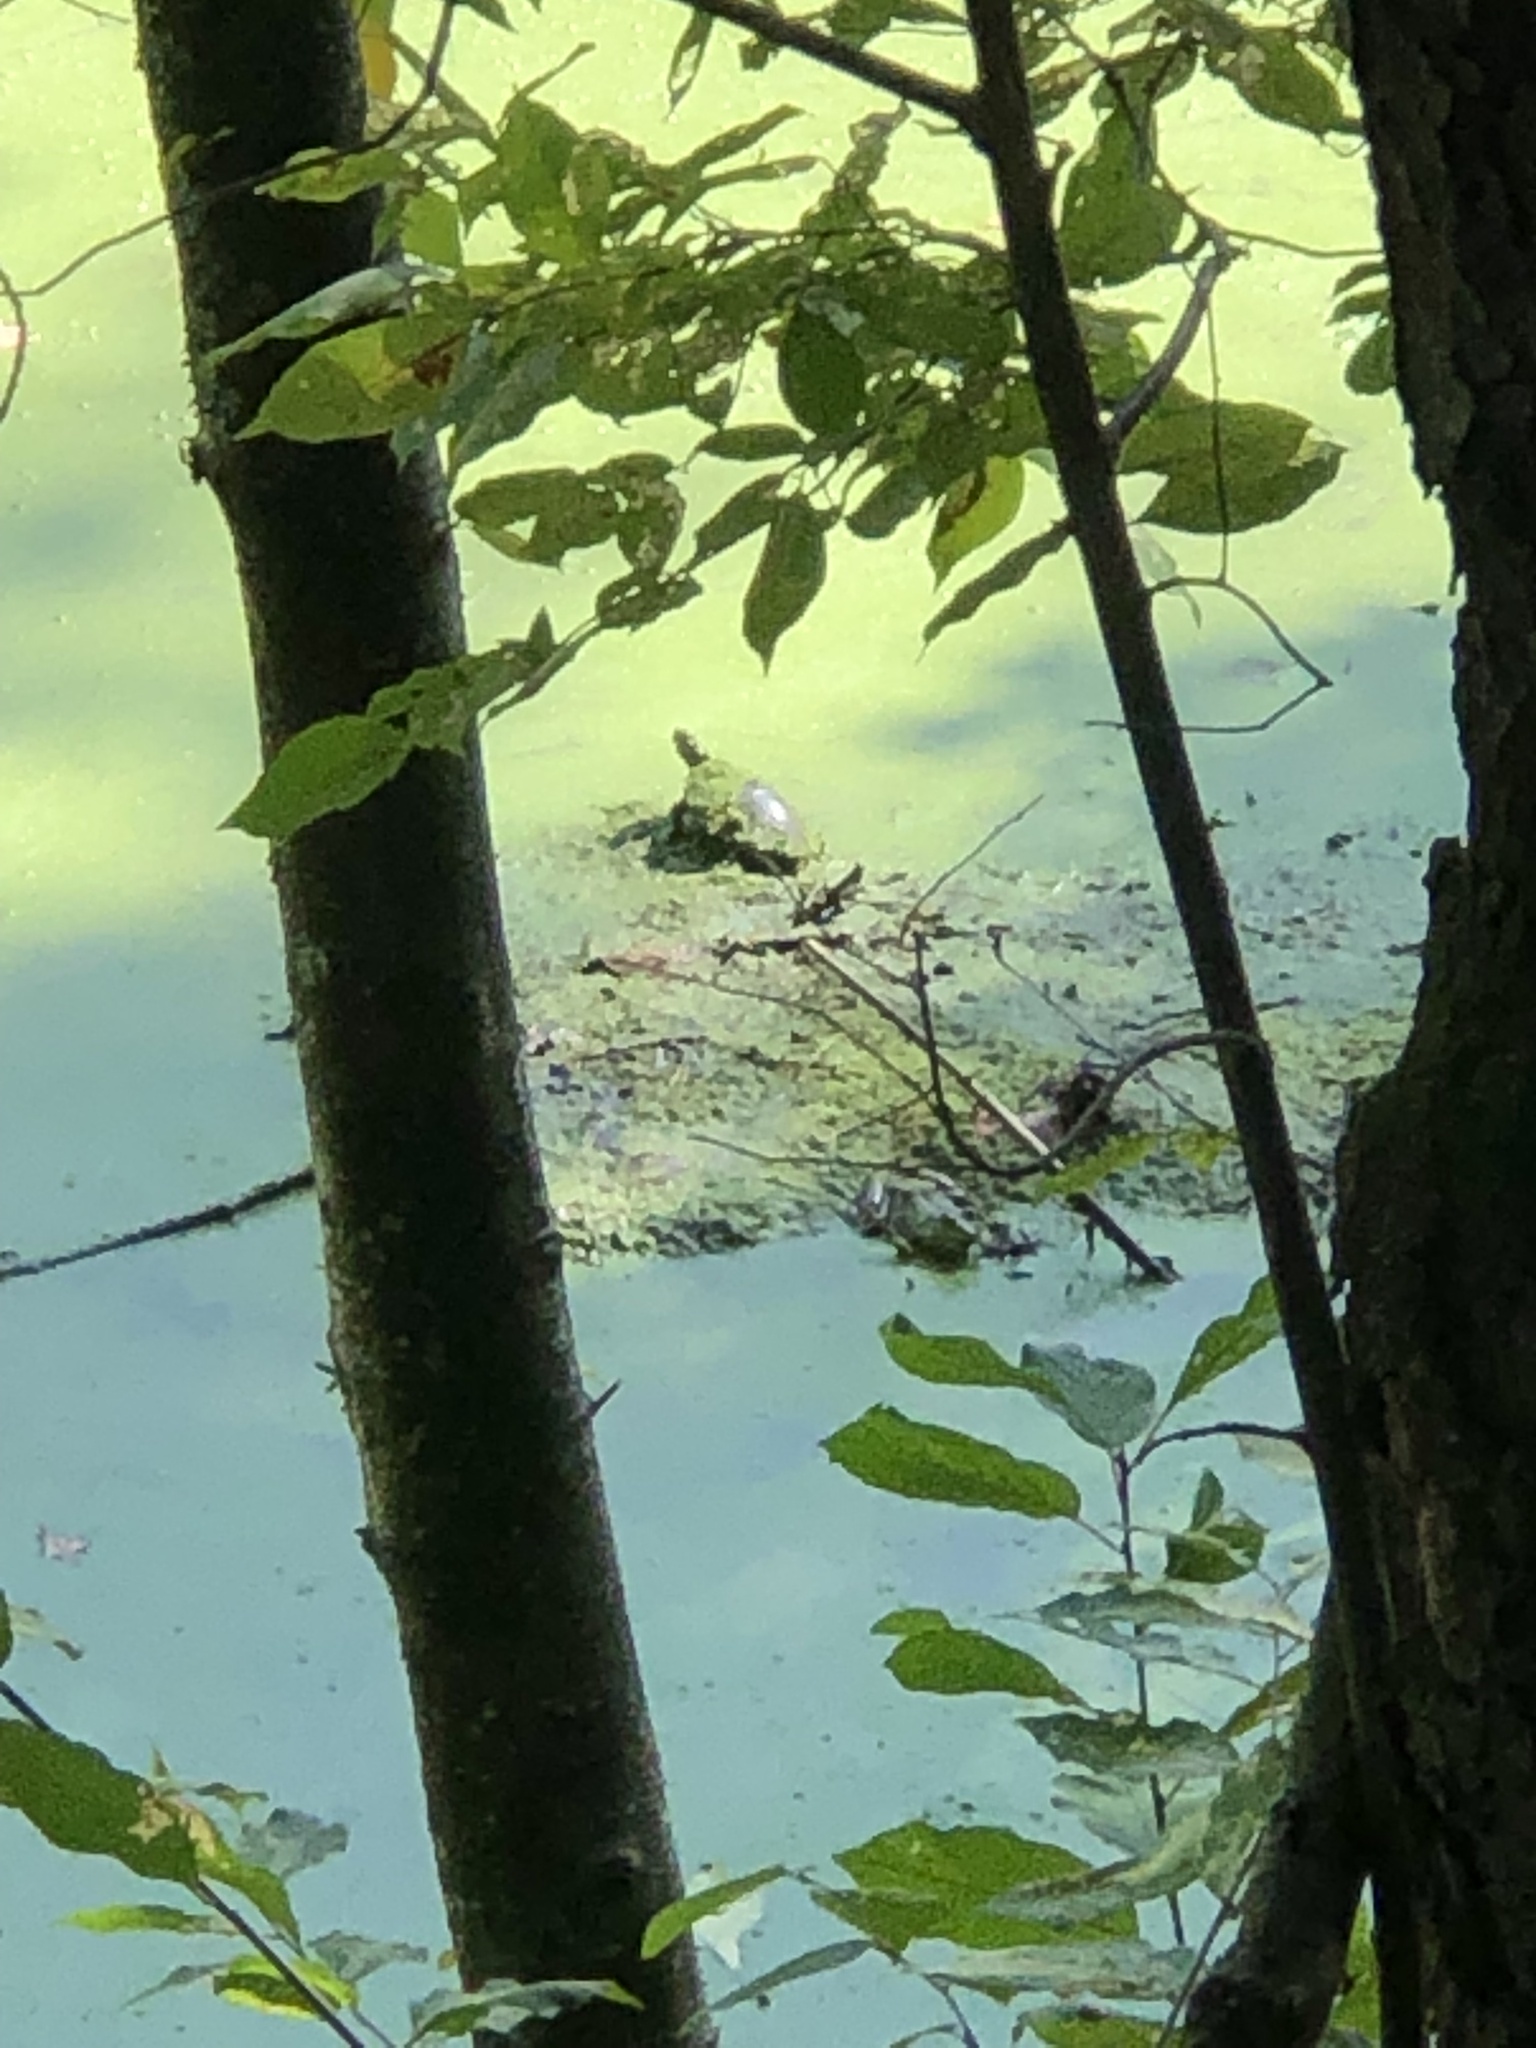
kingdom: Animalia
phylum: Chordata
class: Testudines
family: Emydidae
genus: Chrysemys
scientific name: Chrysemys picta
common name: Painted turtle
